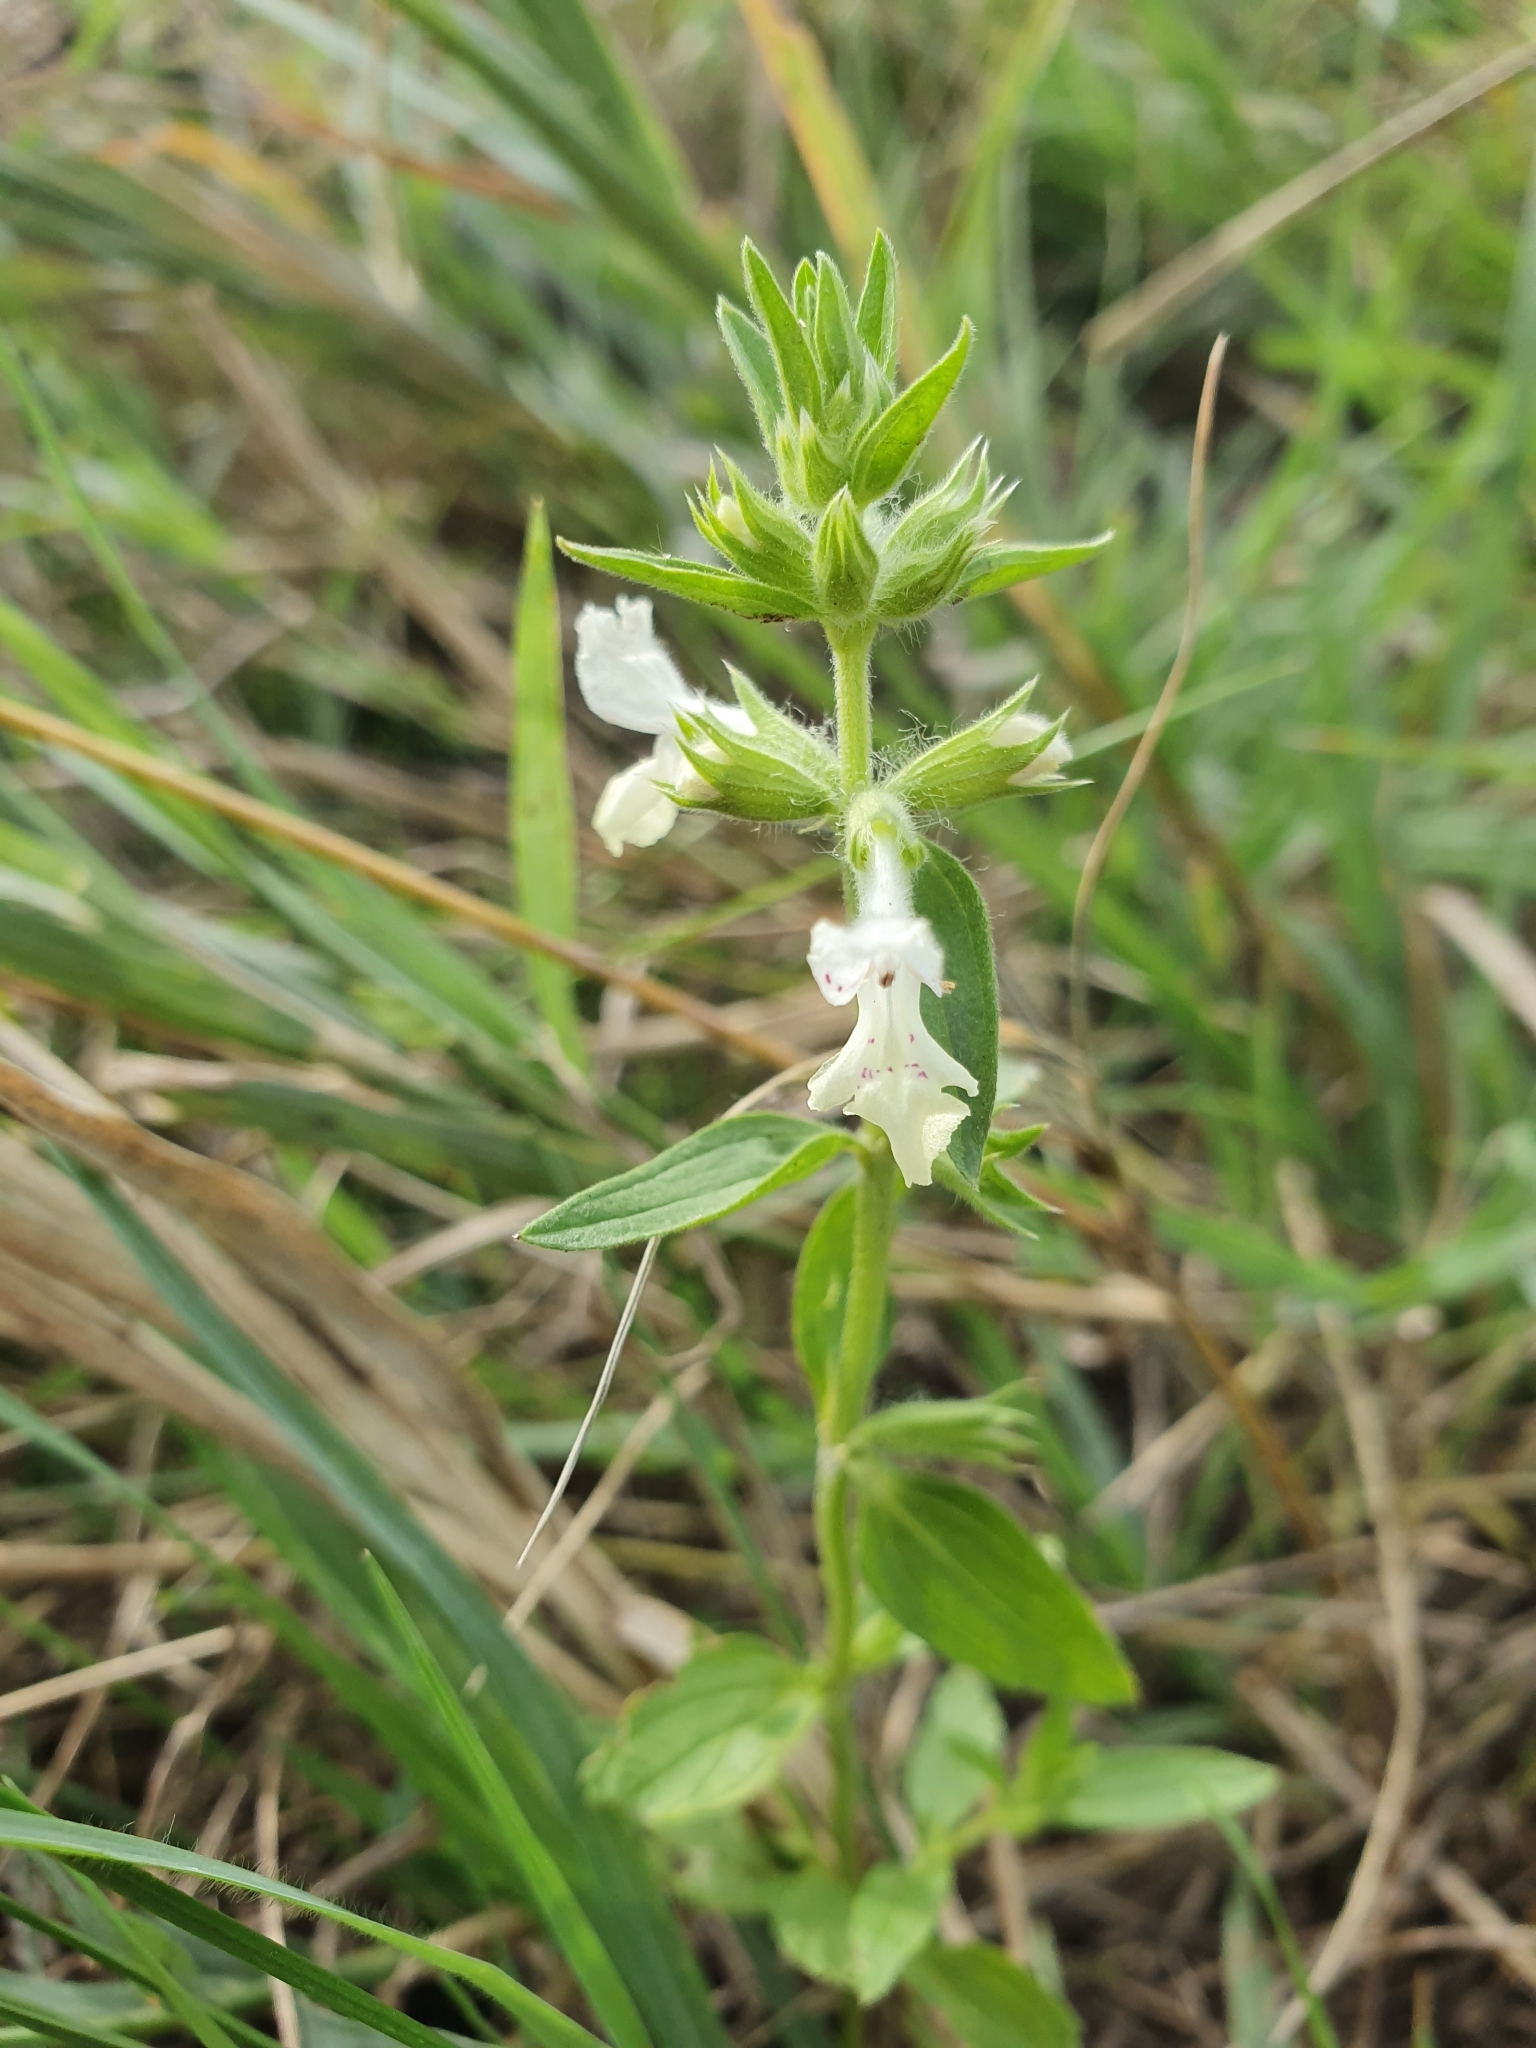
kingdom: Plantae
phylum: Tracheophyta
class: Magnoliopsida
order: Lamiales
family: Lamiaceae
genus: Stachys
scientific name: Stachys annua
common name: Annual yellow-woundwort
